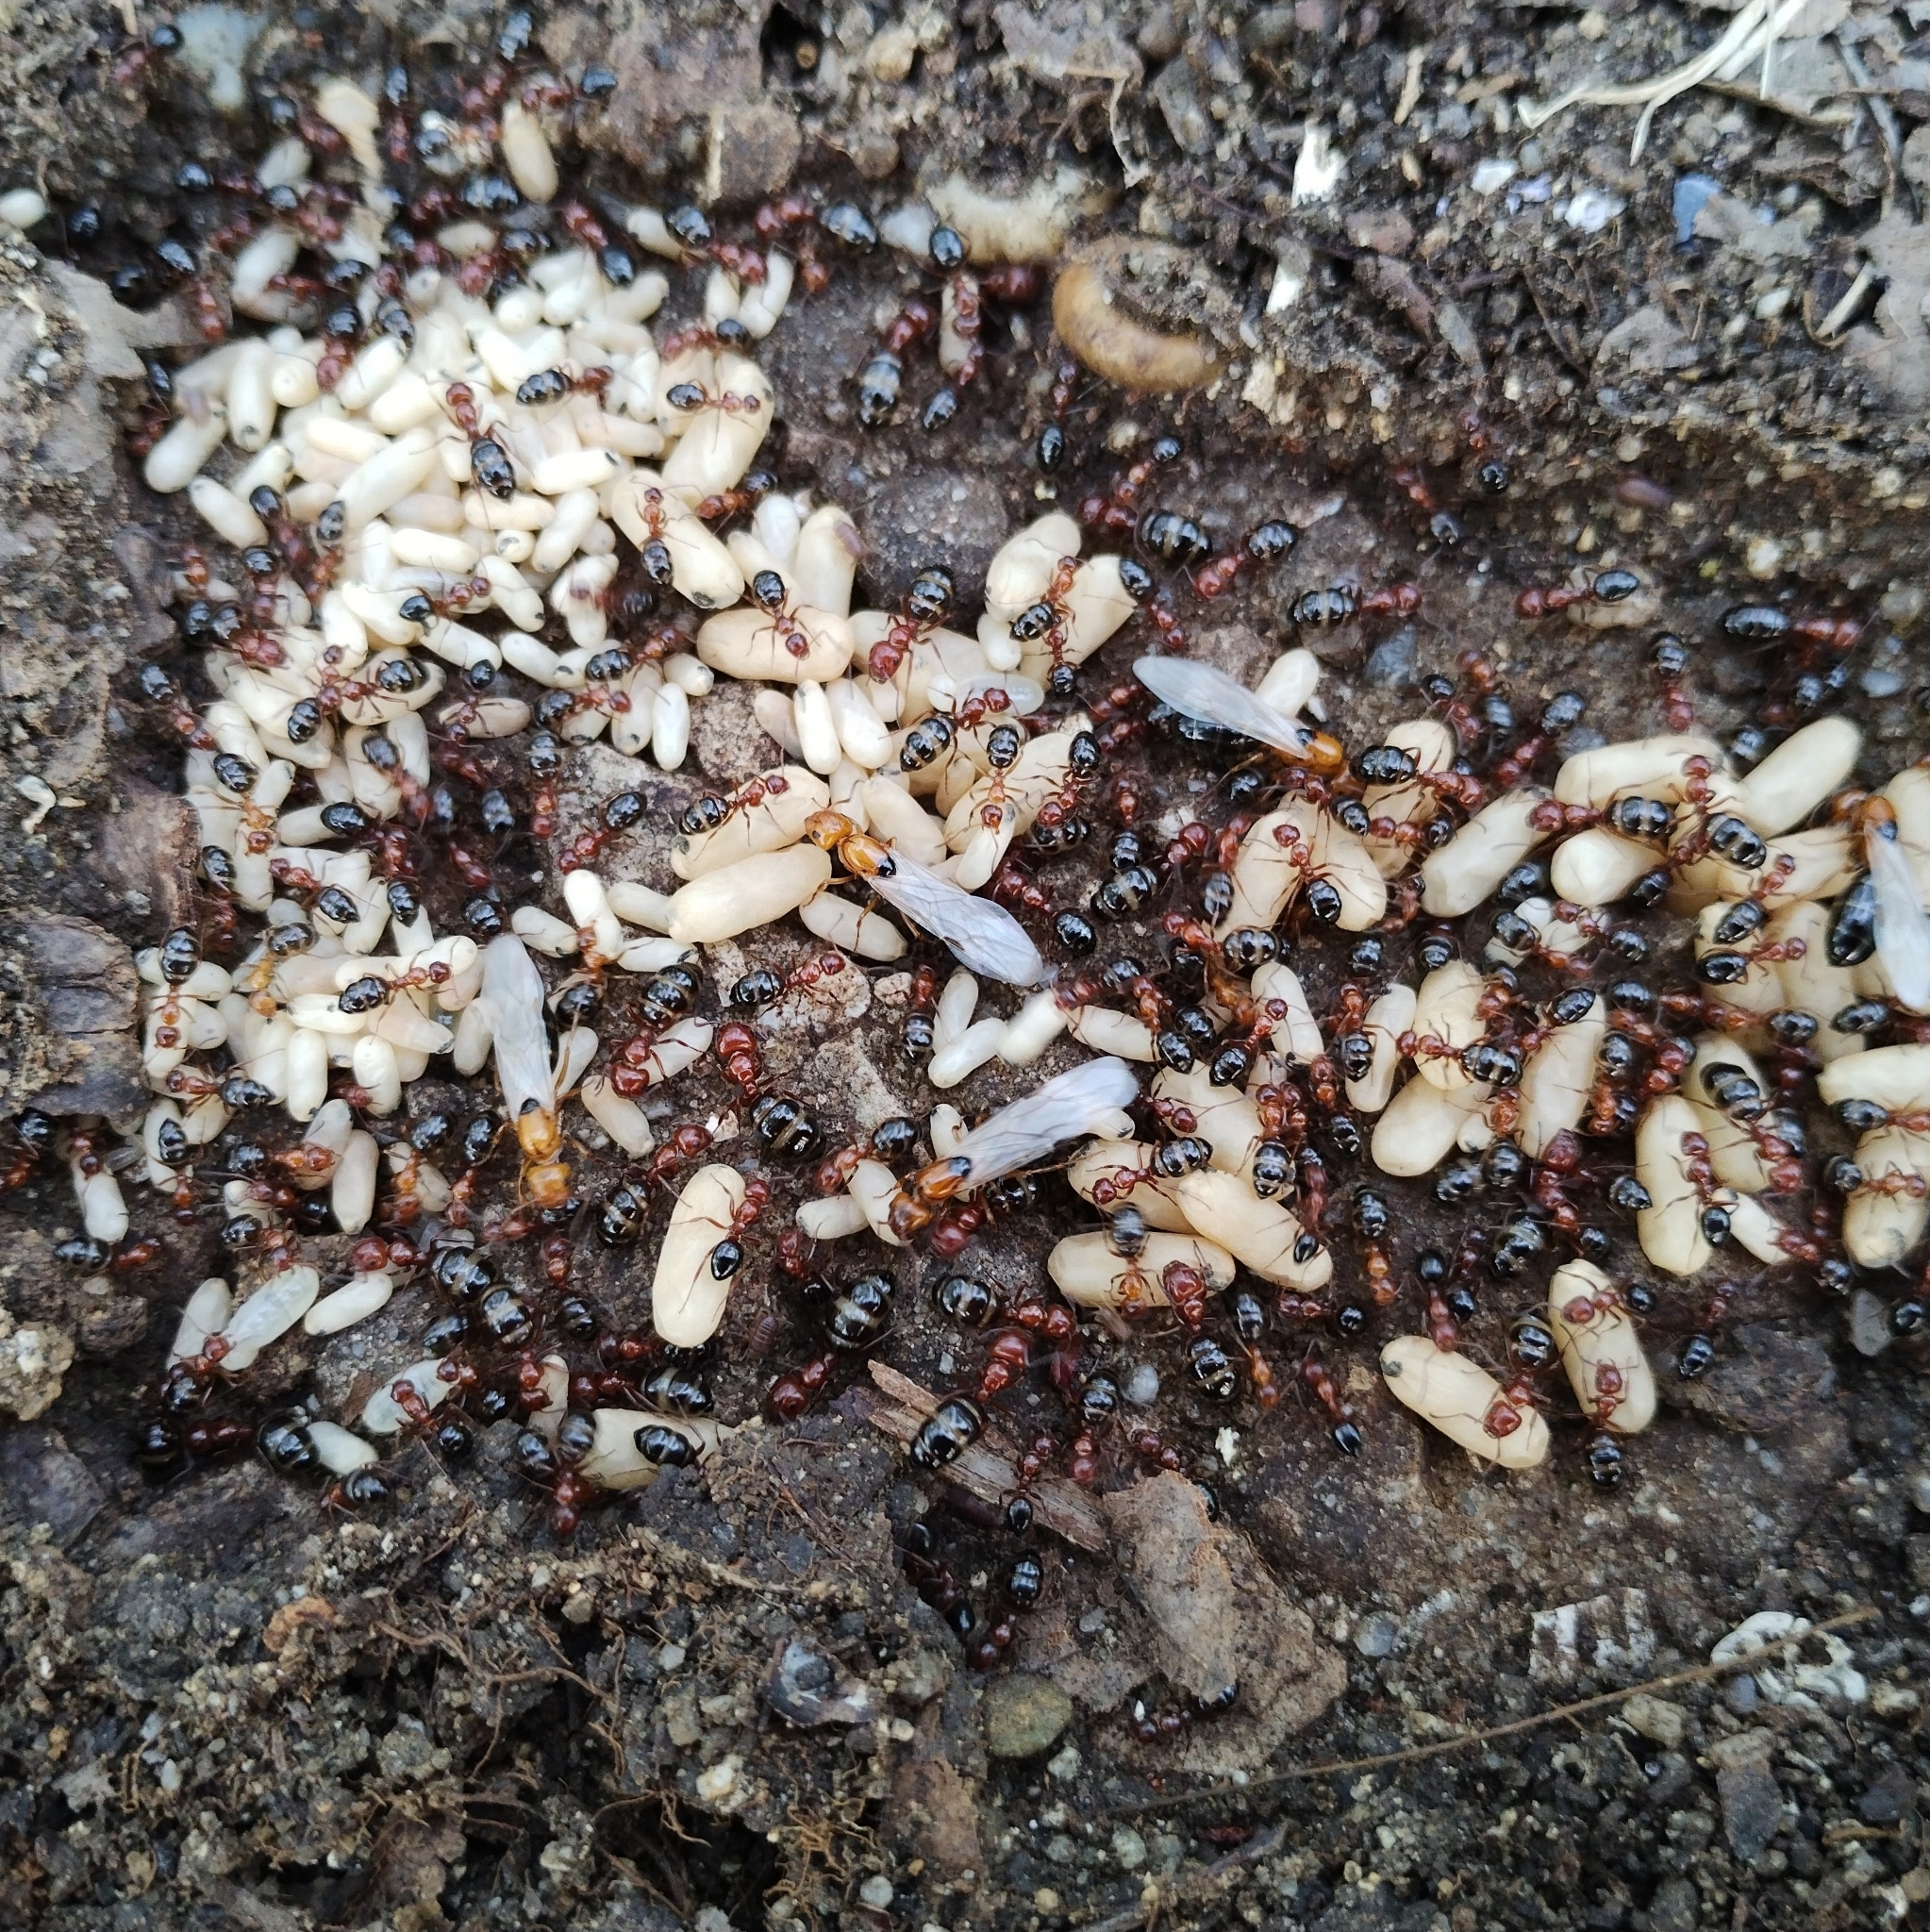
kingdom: Animalia
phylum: Arthropoda
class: Insecta
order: Hymenoptera
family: Formicidae
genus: Camponotus
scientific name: Camponotus lateralis
